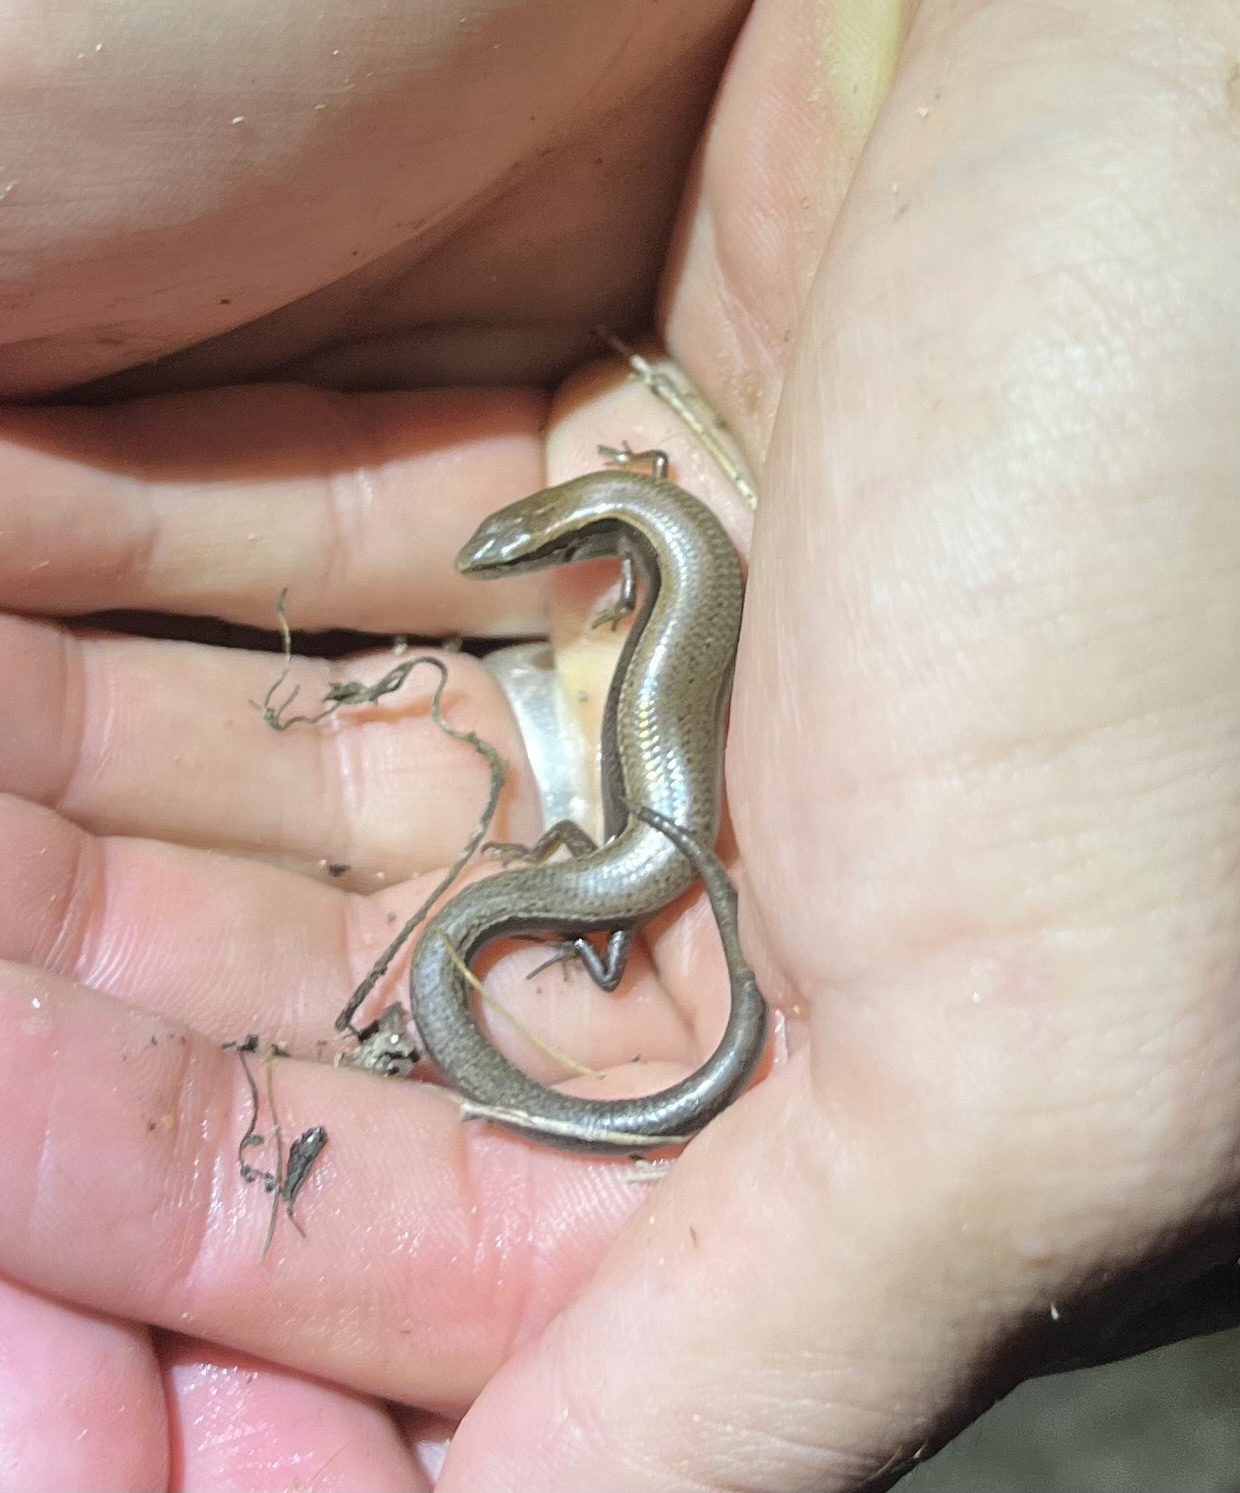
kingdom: Animalia
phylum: Chordata
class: Squamata
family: Scincidae
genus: Scincella
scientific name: Scincella lateralis
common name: Ground skink
